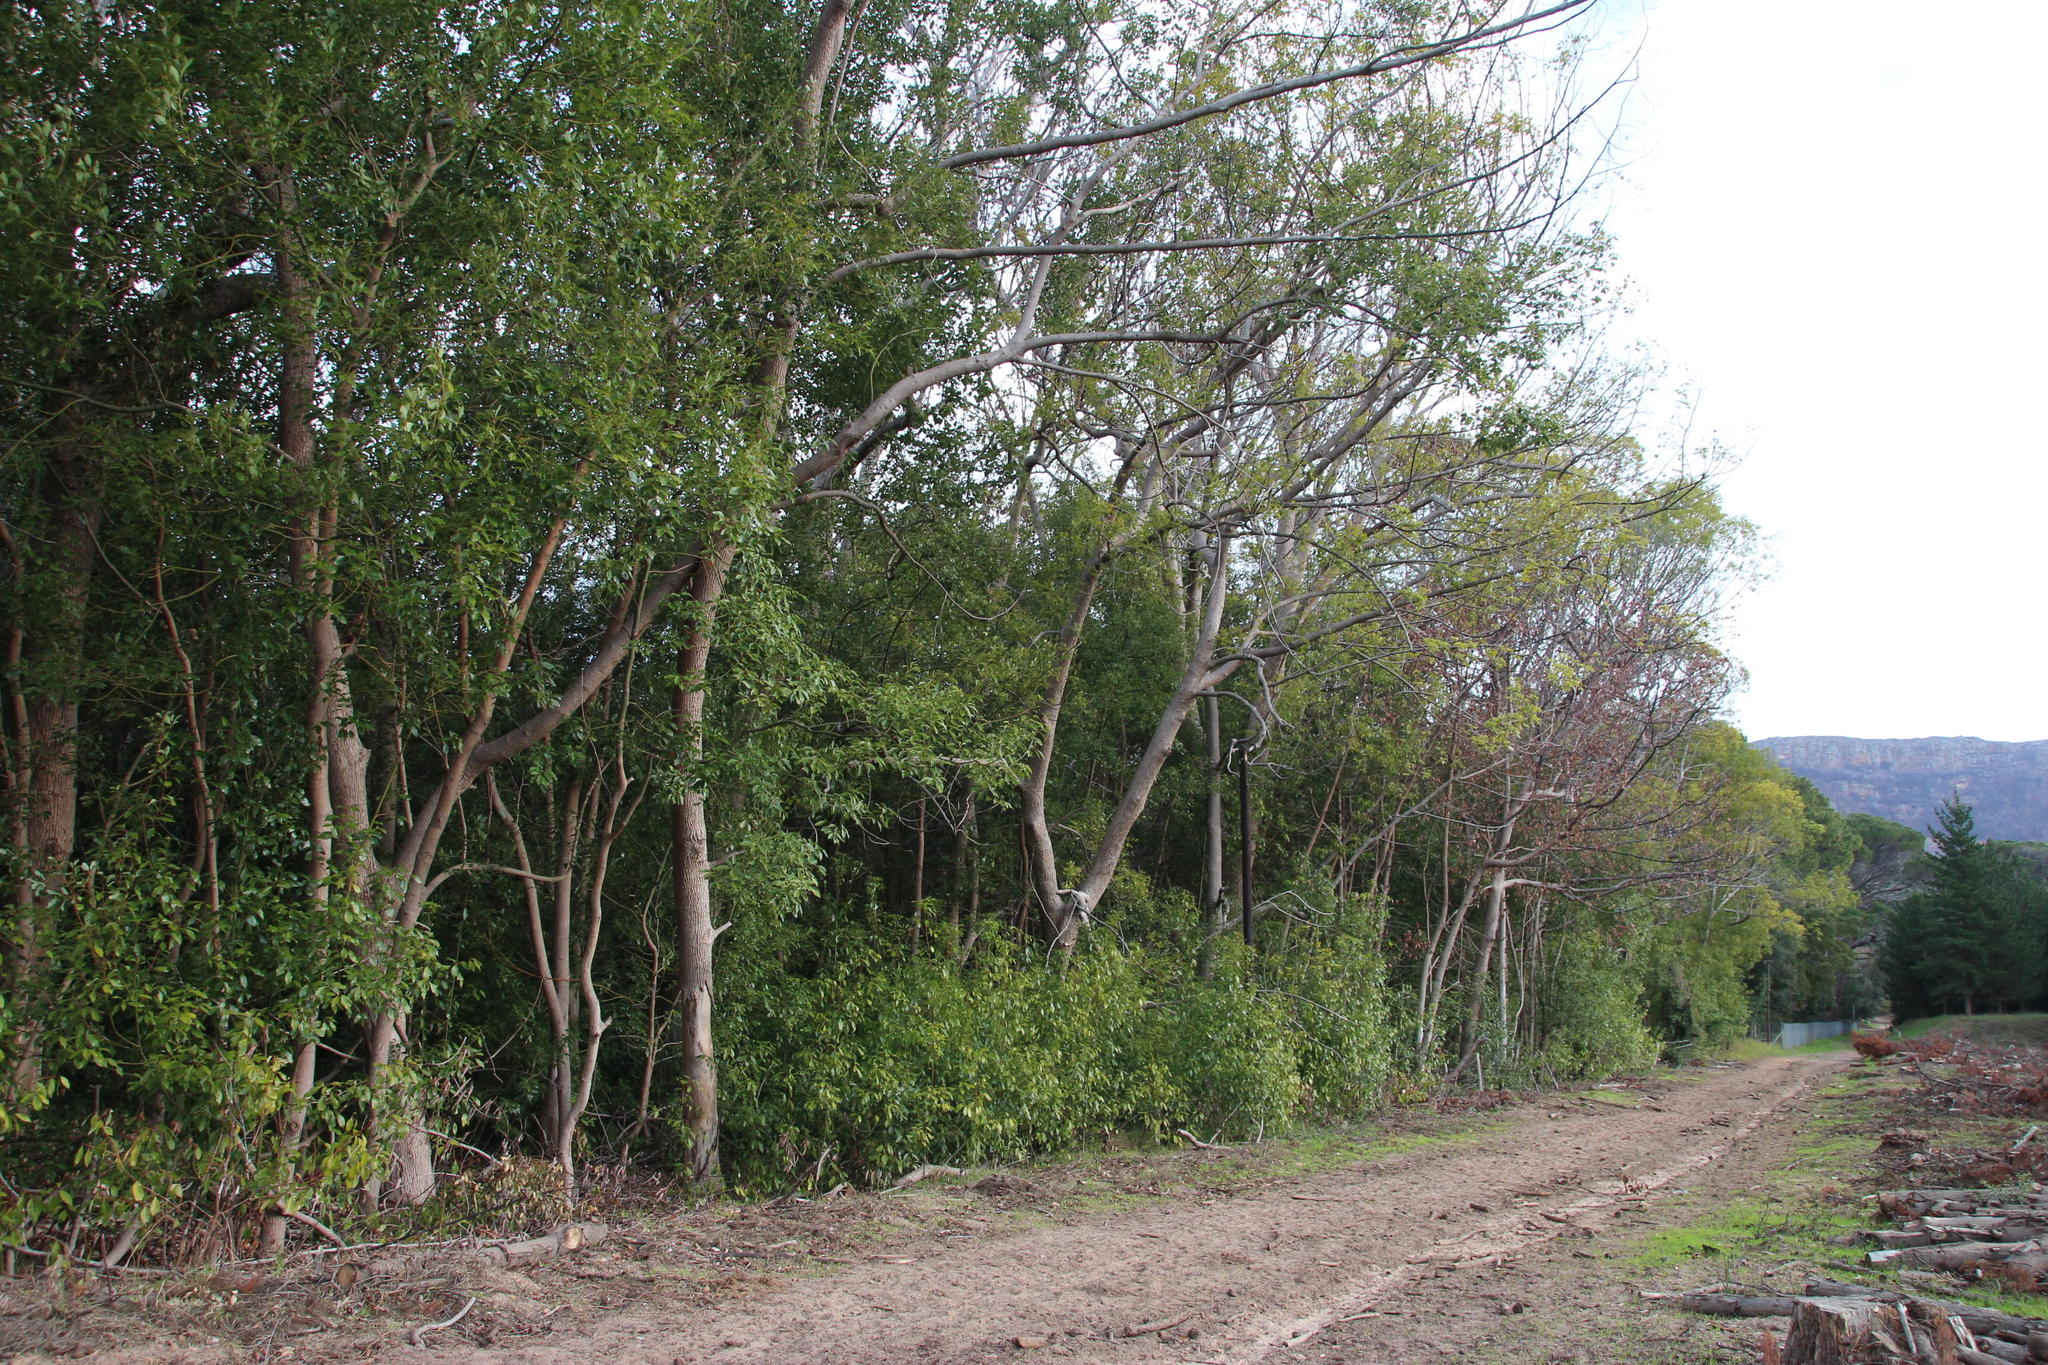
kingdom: Plantae
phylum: Tracheophyta
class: Magnoliopsida
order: Laurales
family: Lauraceae
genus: Cinnamomum
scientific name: Cinnamomum camphora
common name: Camphortree
